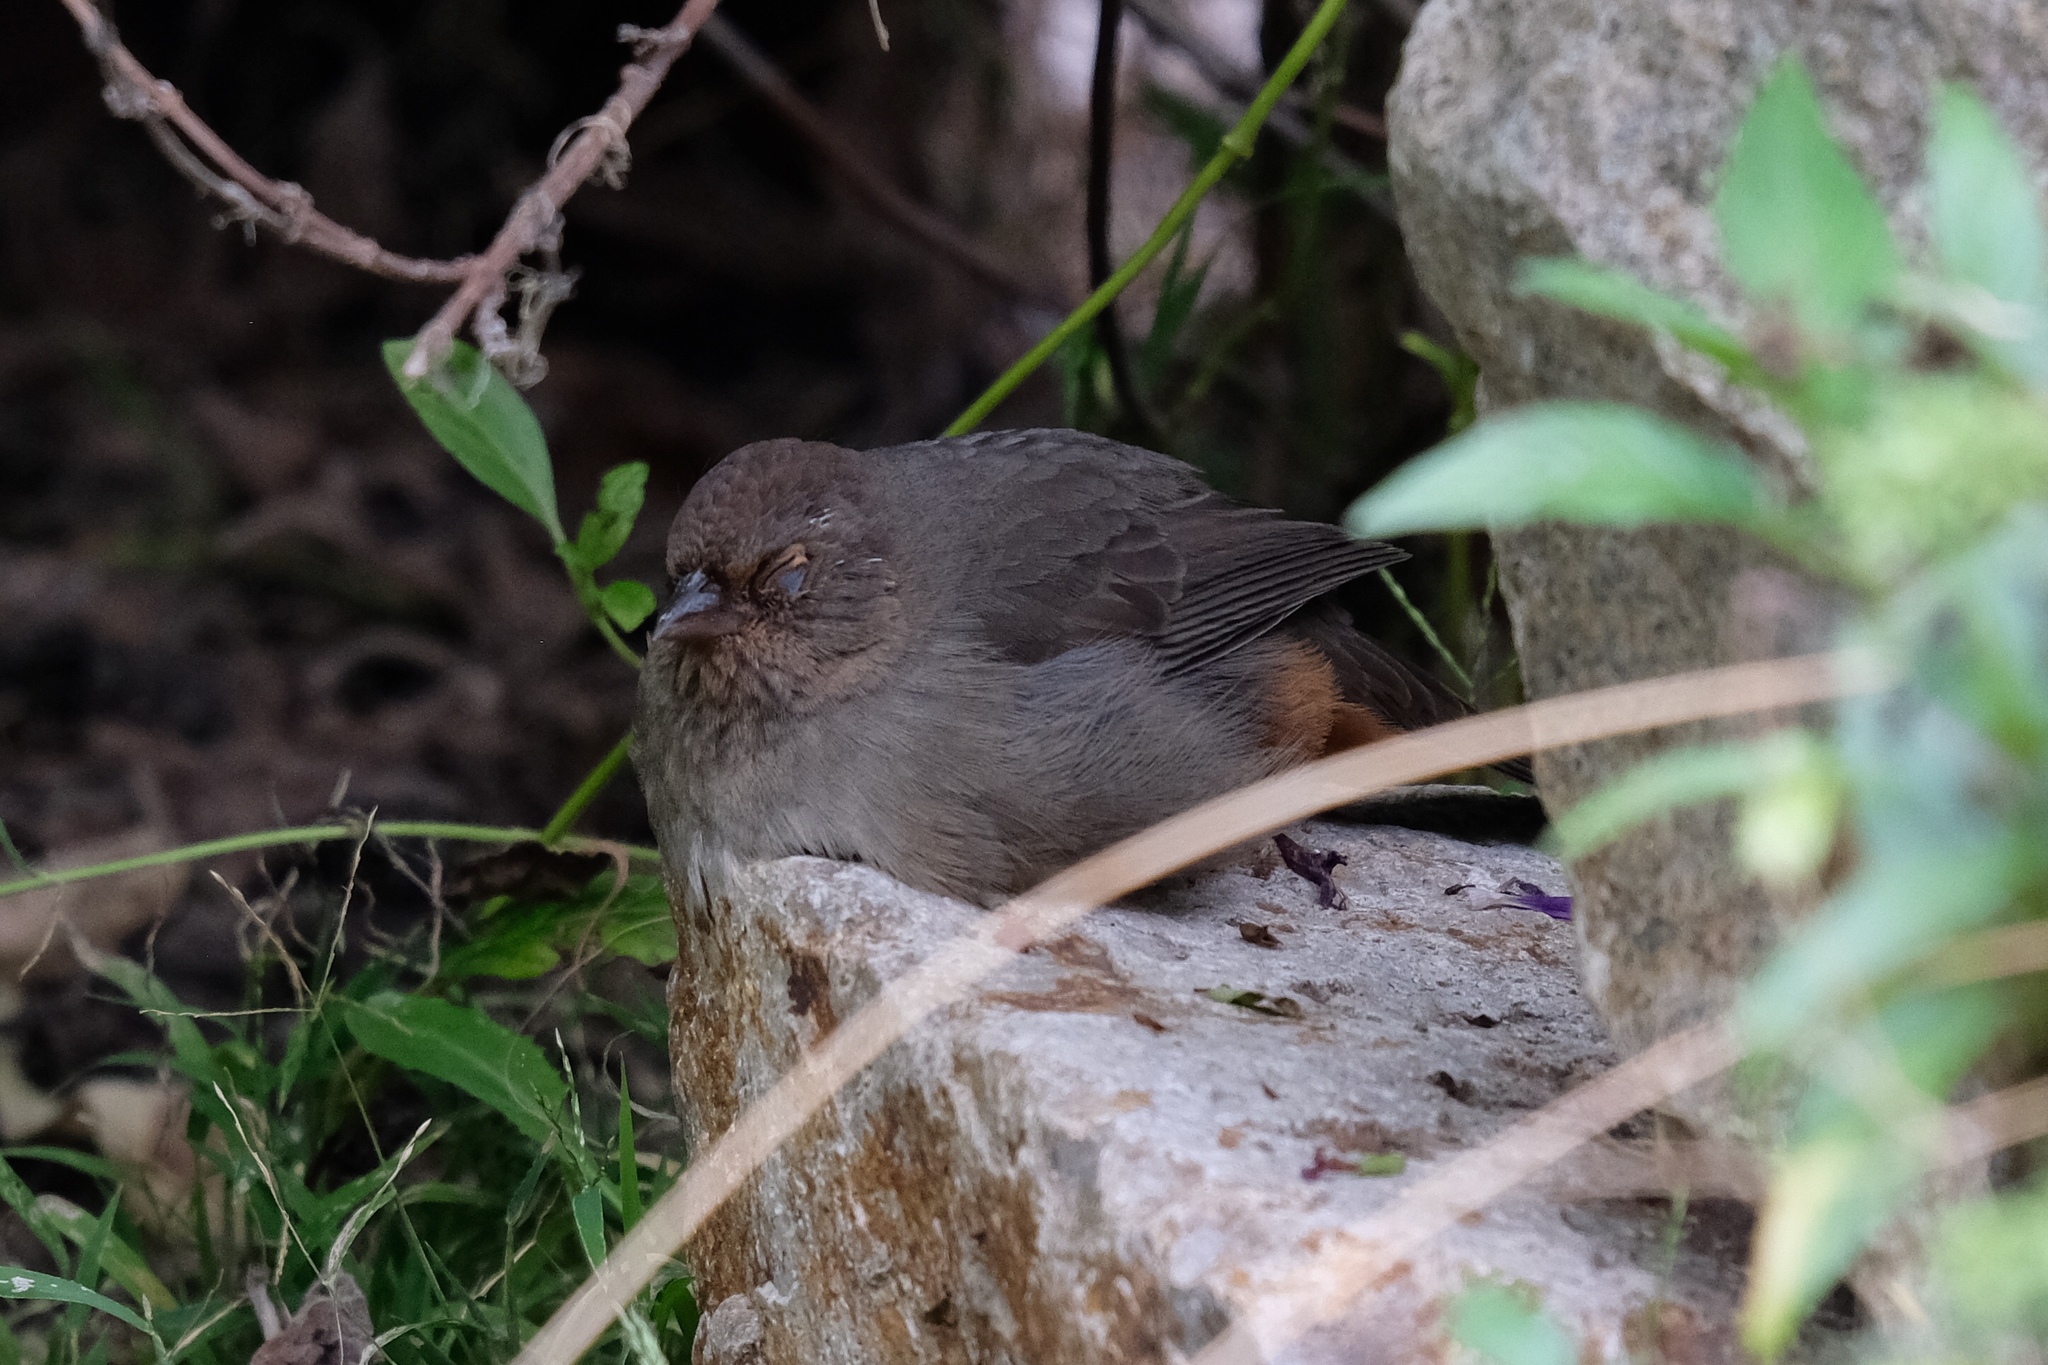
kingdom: Animalia
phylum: Chordata
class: Aves
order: Passeriformes
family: Passerellidae
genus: Melozone
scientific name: Melozone crissalis
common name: California towhee
